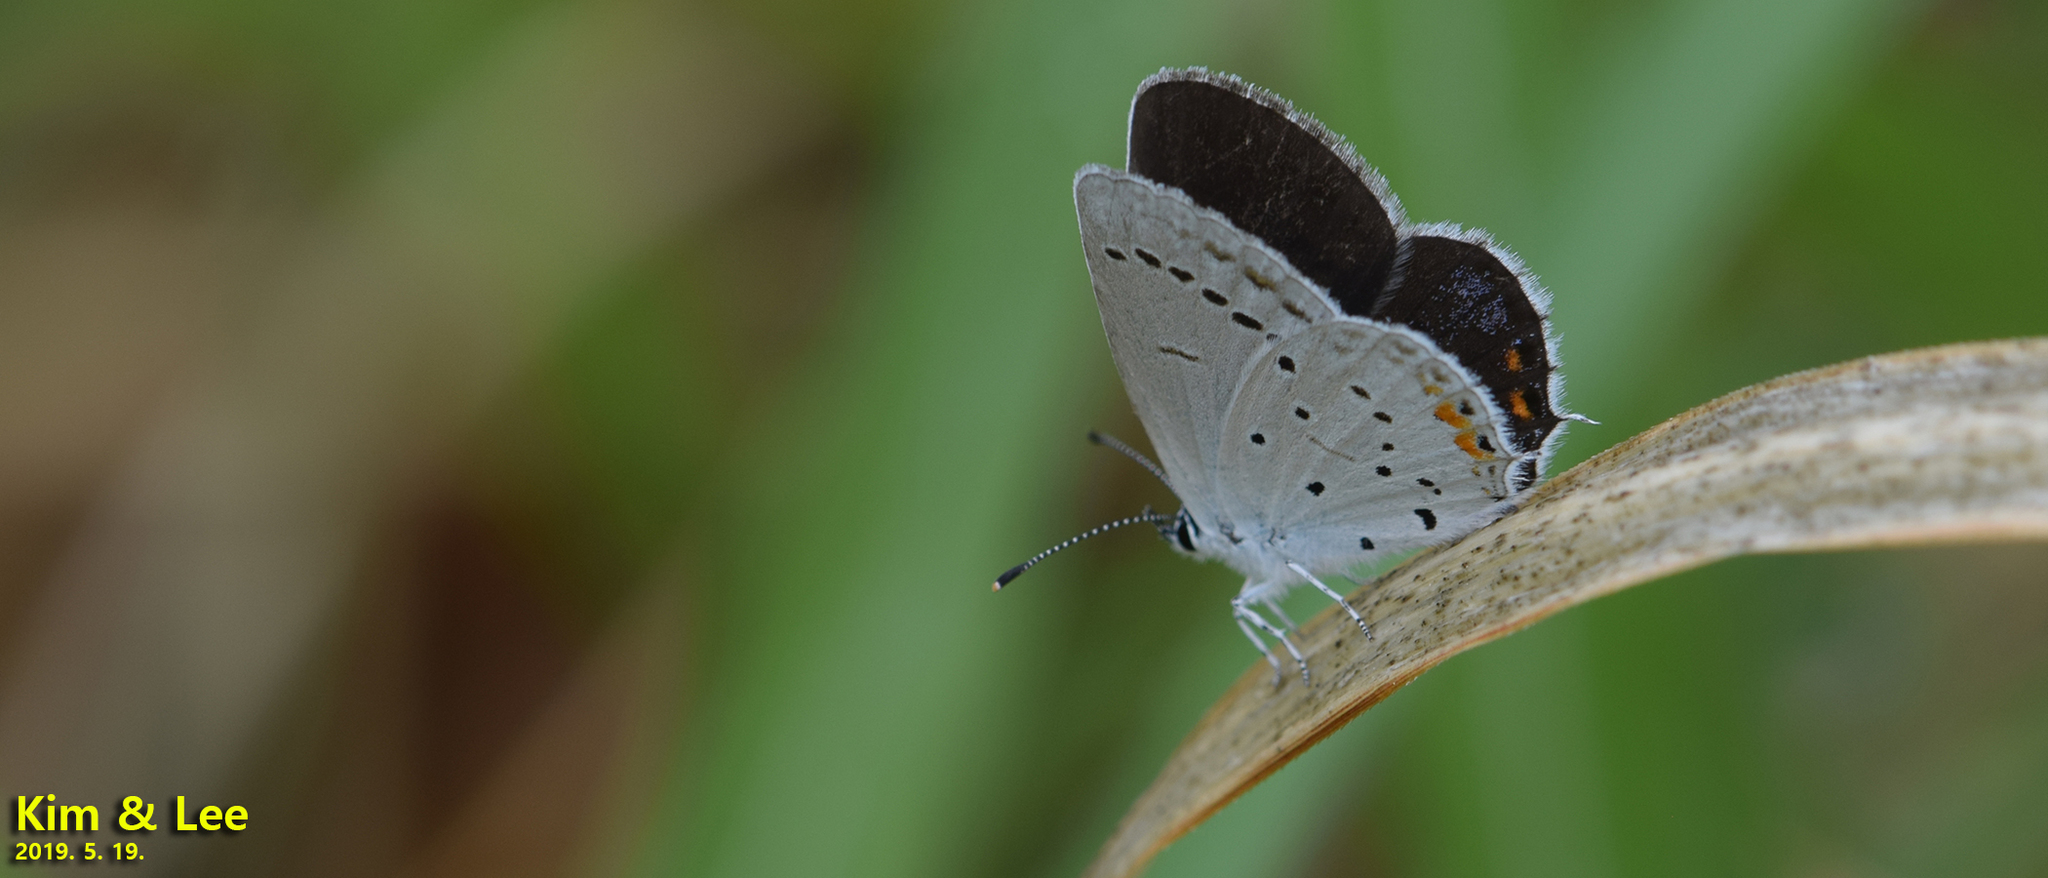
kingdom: Animalia
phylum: Arthropoda
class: Insecta
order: Lepidoptera
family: Lycaenidae
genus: Elkalyce
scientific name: Elkalyce argiades
